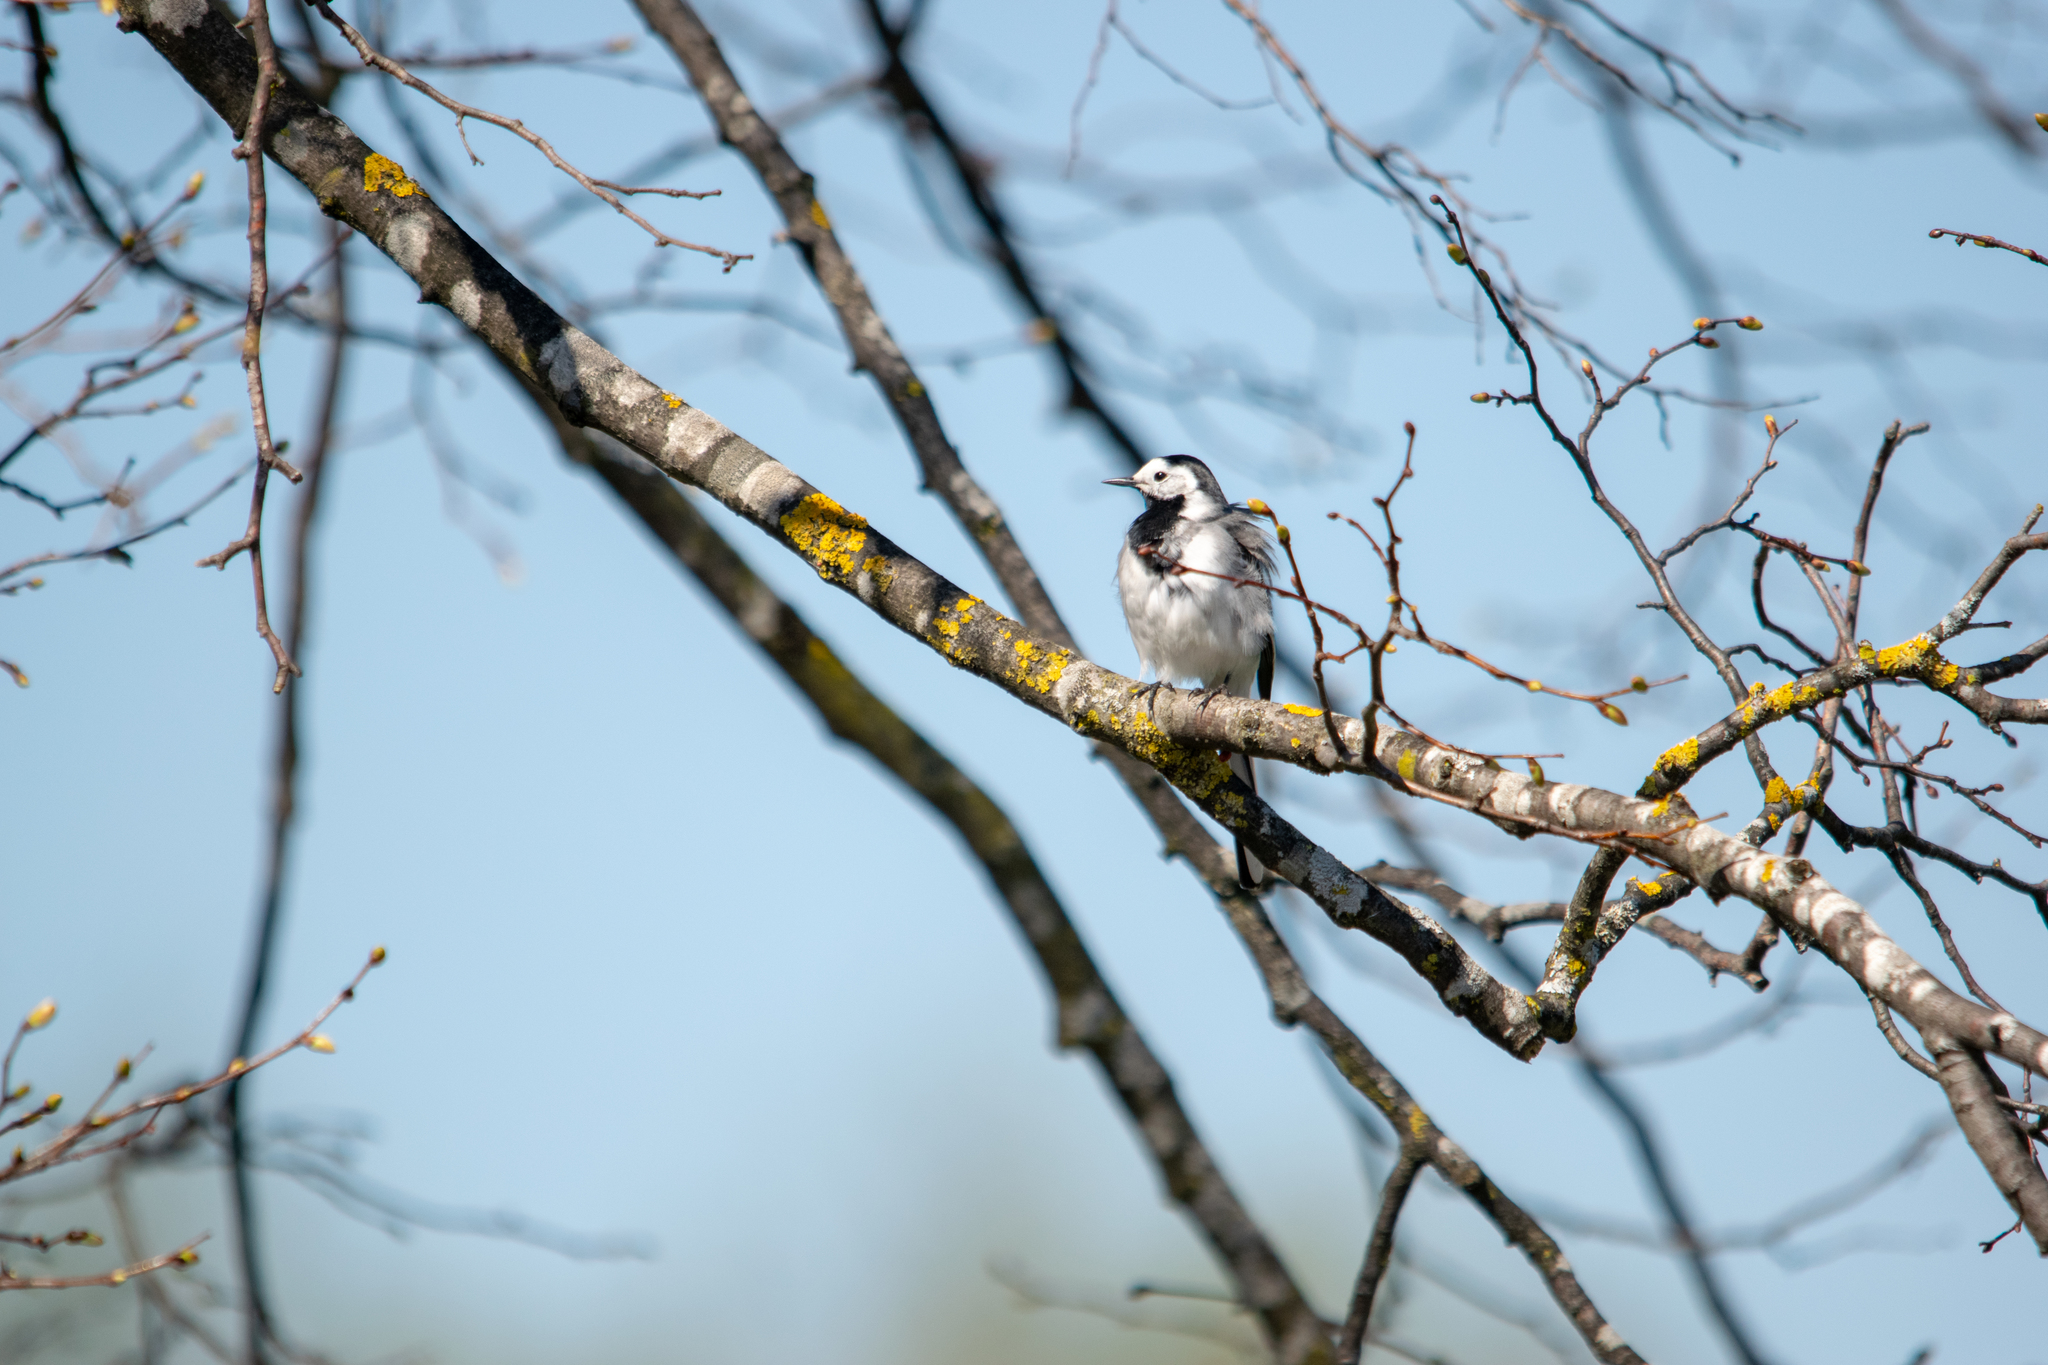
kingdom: Animalia
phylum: Chordata
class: Aves
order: Passeriformes
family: Motacillidae
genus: Motacilla
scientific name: Motacilla alba
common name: White wagtail
